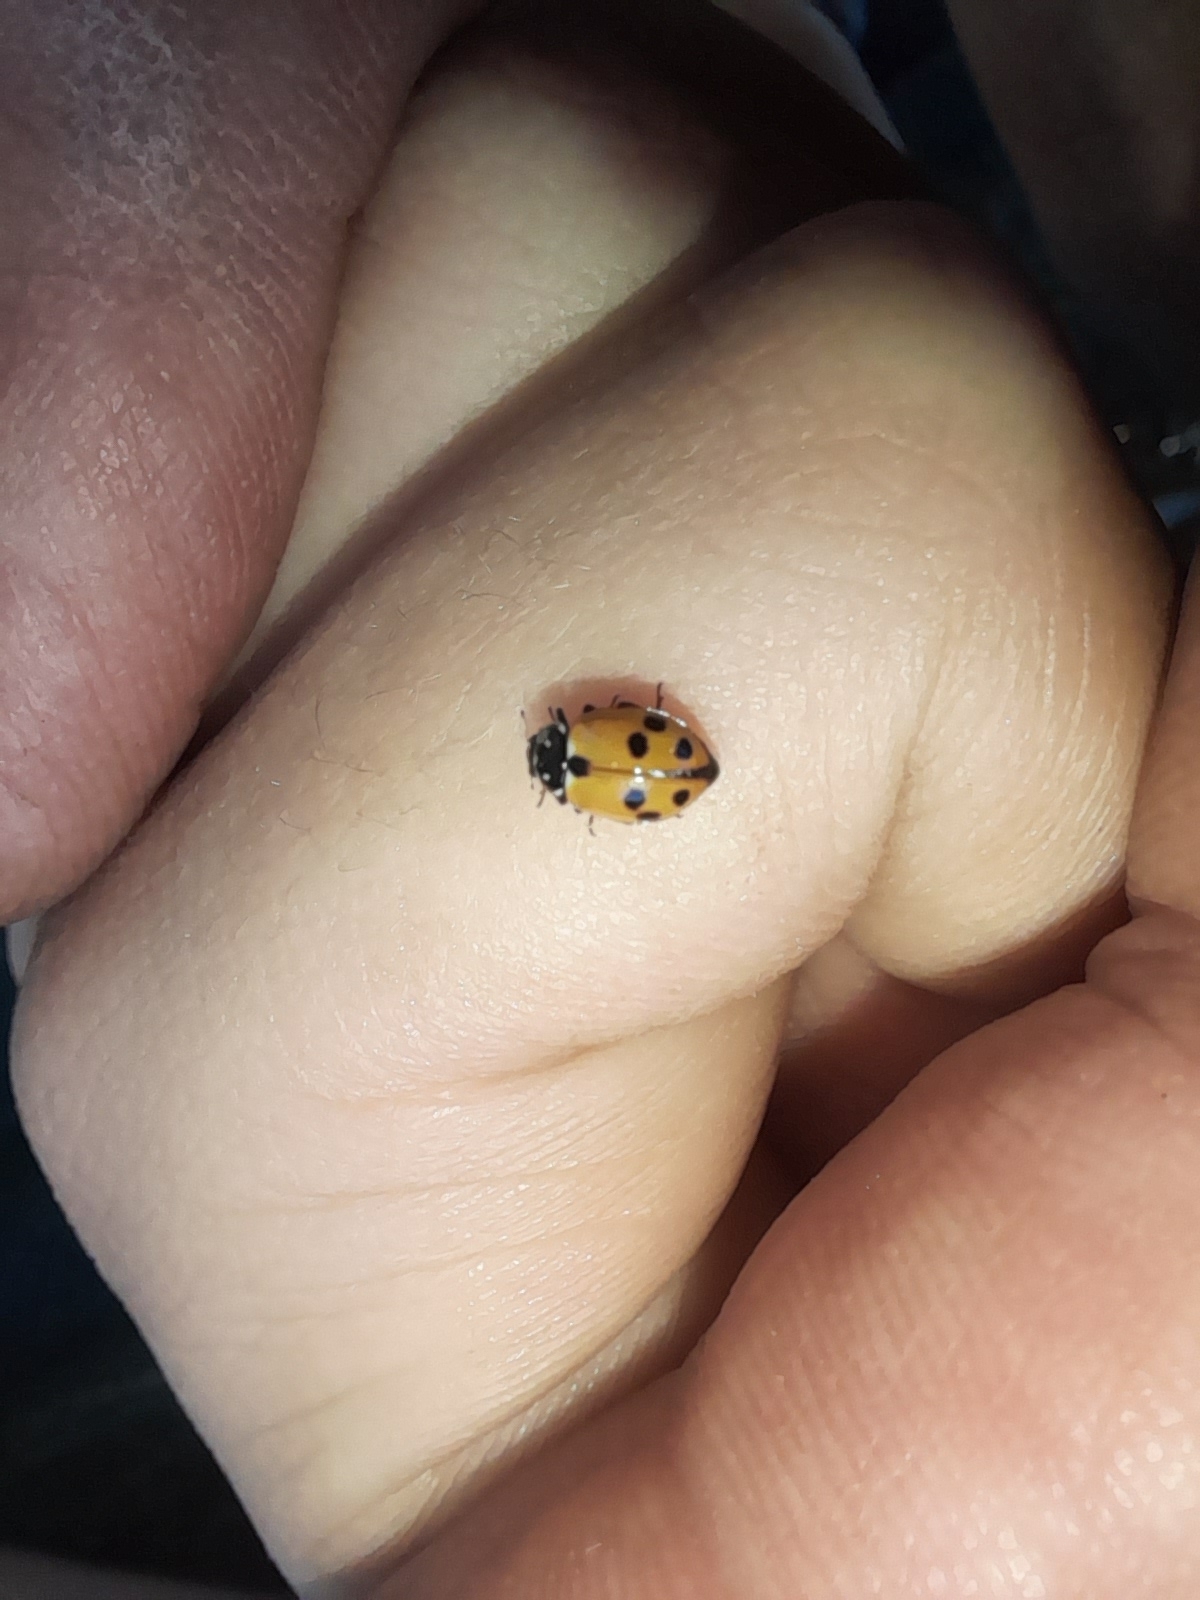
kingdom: Animalia
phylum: Arthropoda
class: Insecta
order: Coleoptera
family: Coccinellidae
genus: Hippodamia
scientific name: Hippodamia variegata
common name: Ladybird beetle
